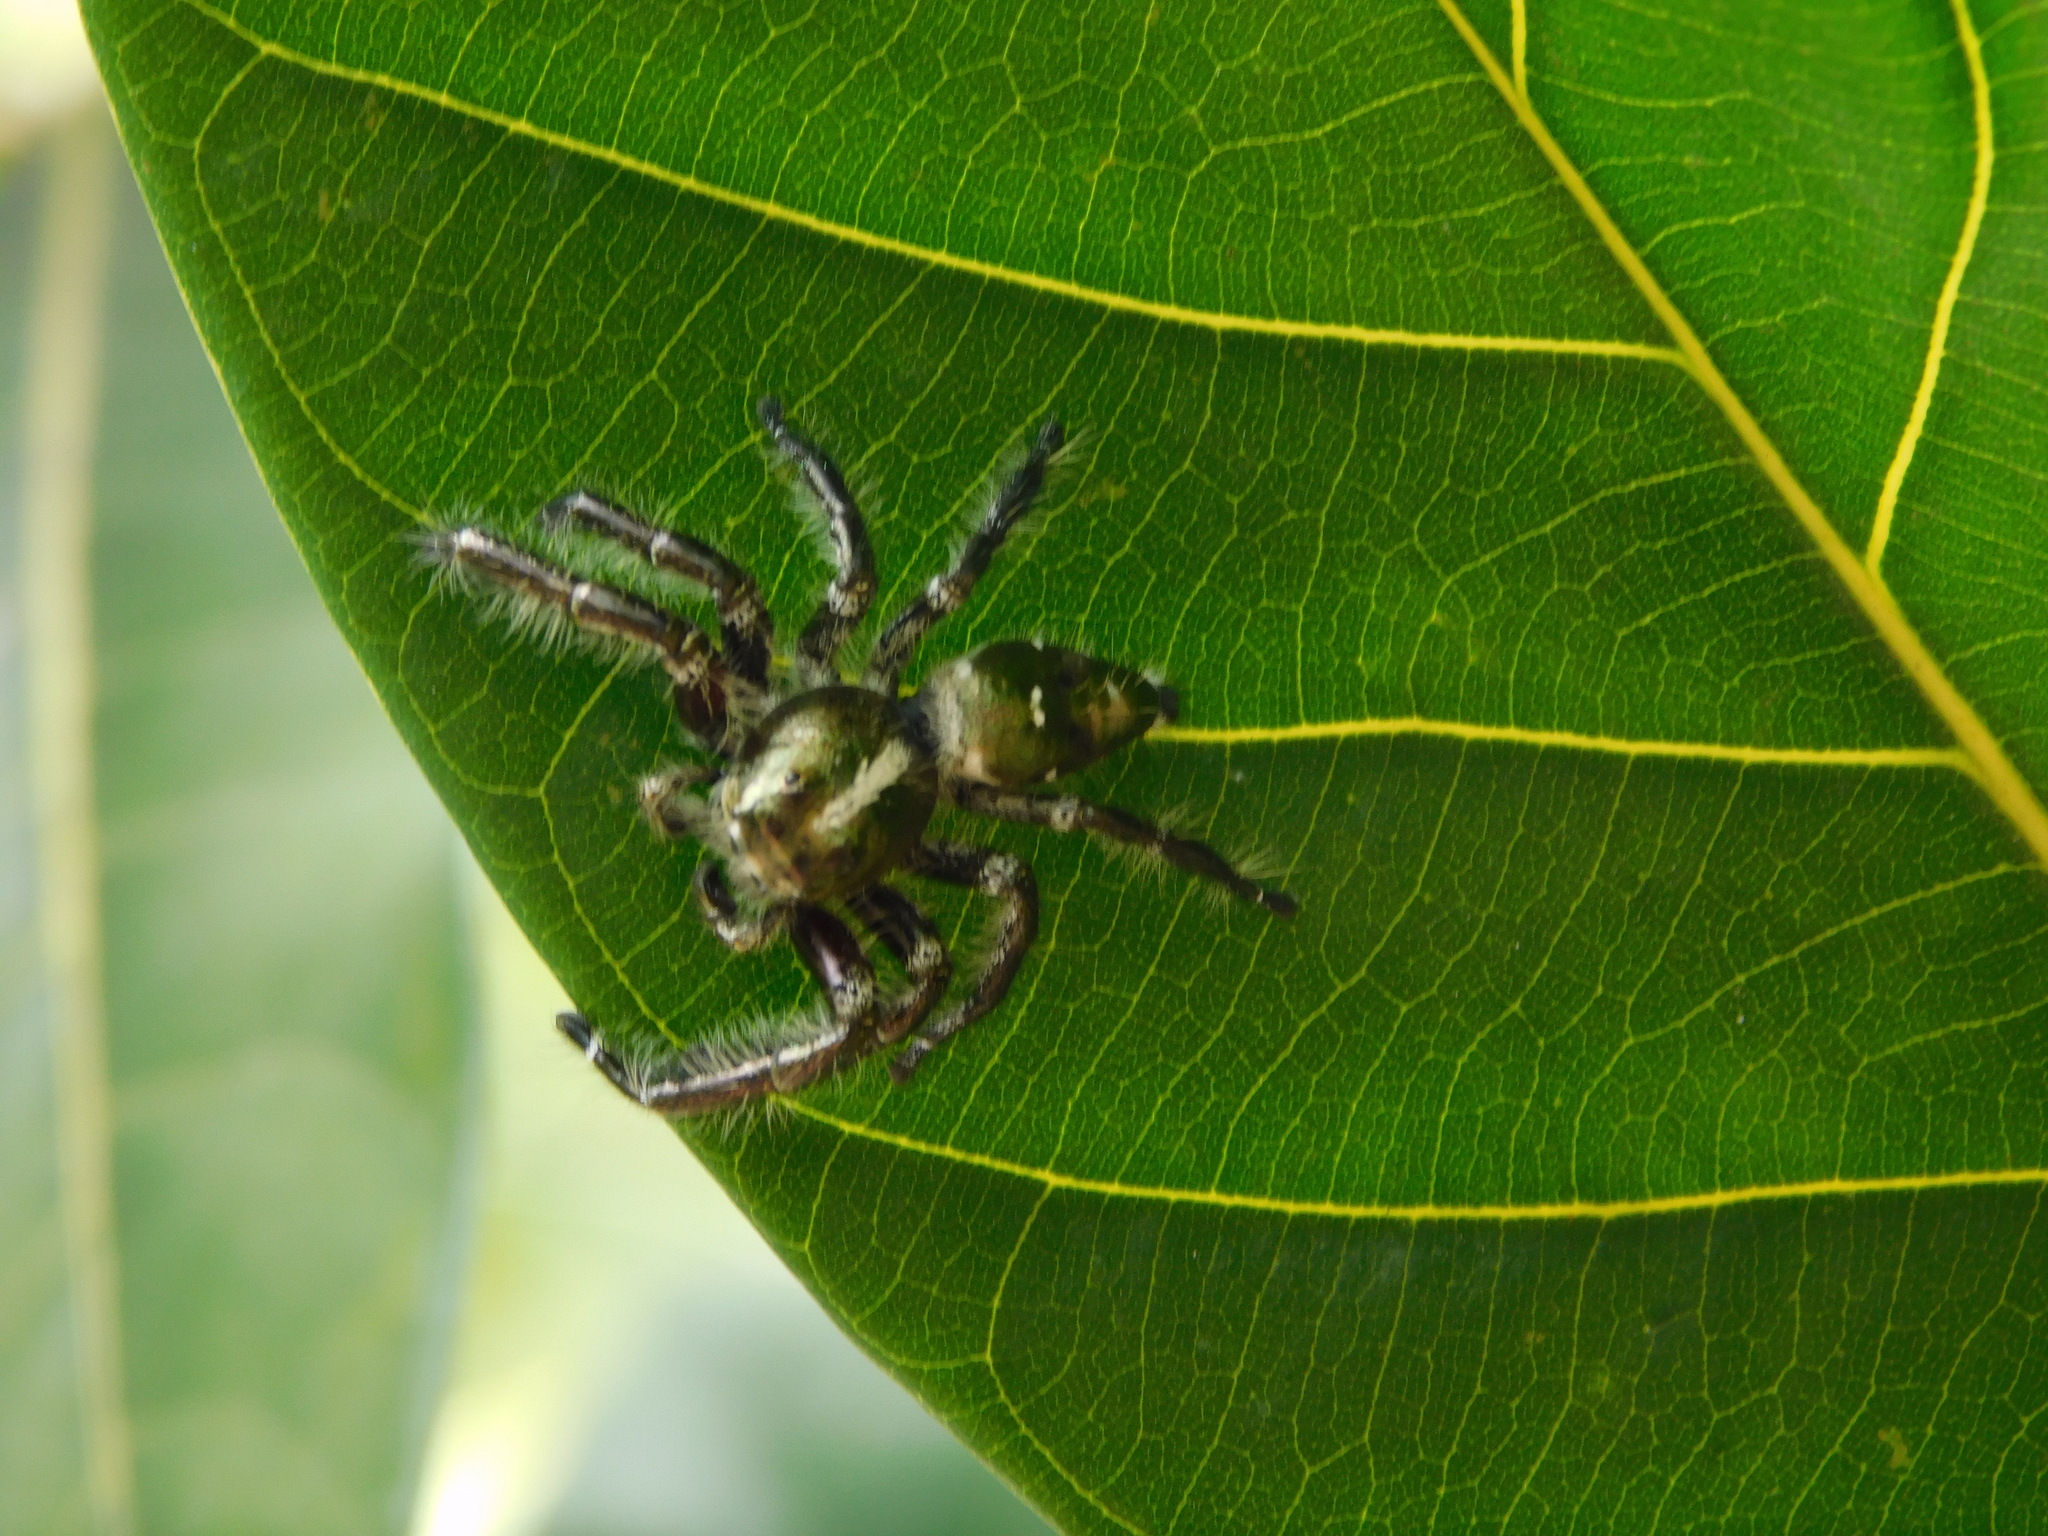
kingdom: Animalia
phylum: Arthropoda
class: Arachnida
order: Araneae
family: Salticidae
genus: Hyllus
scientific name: Hyllus diardi
